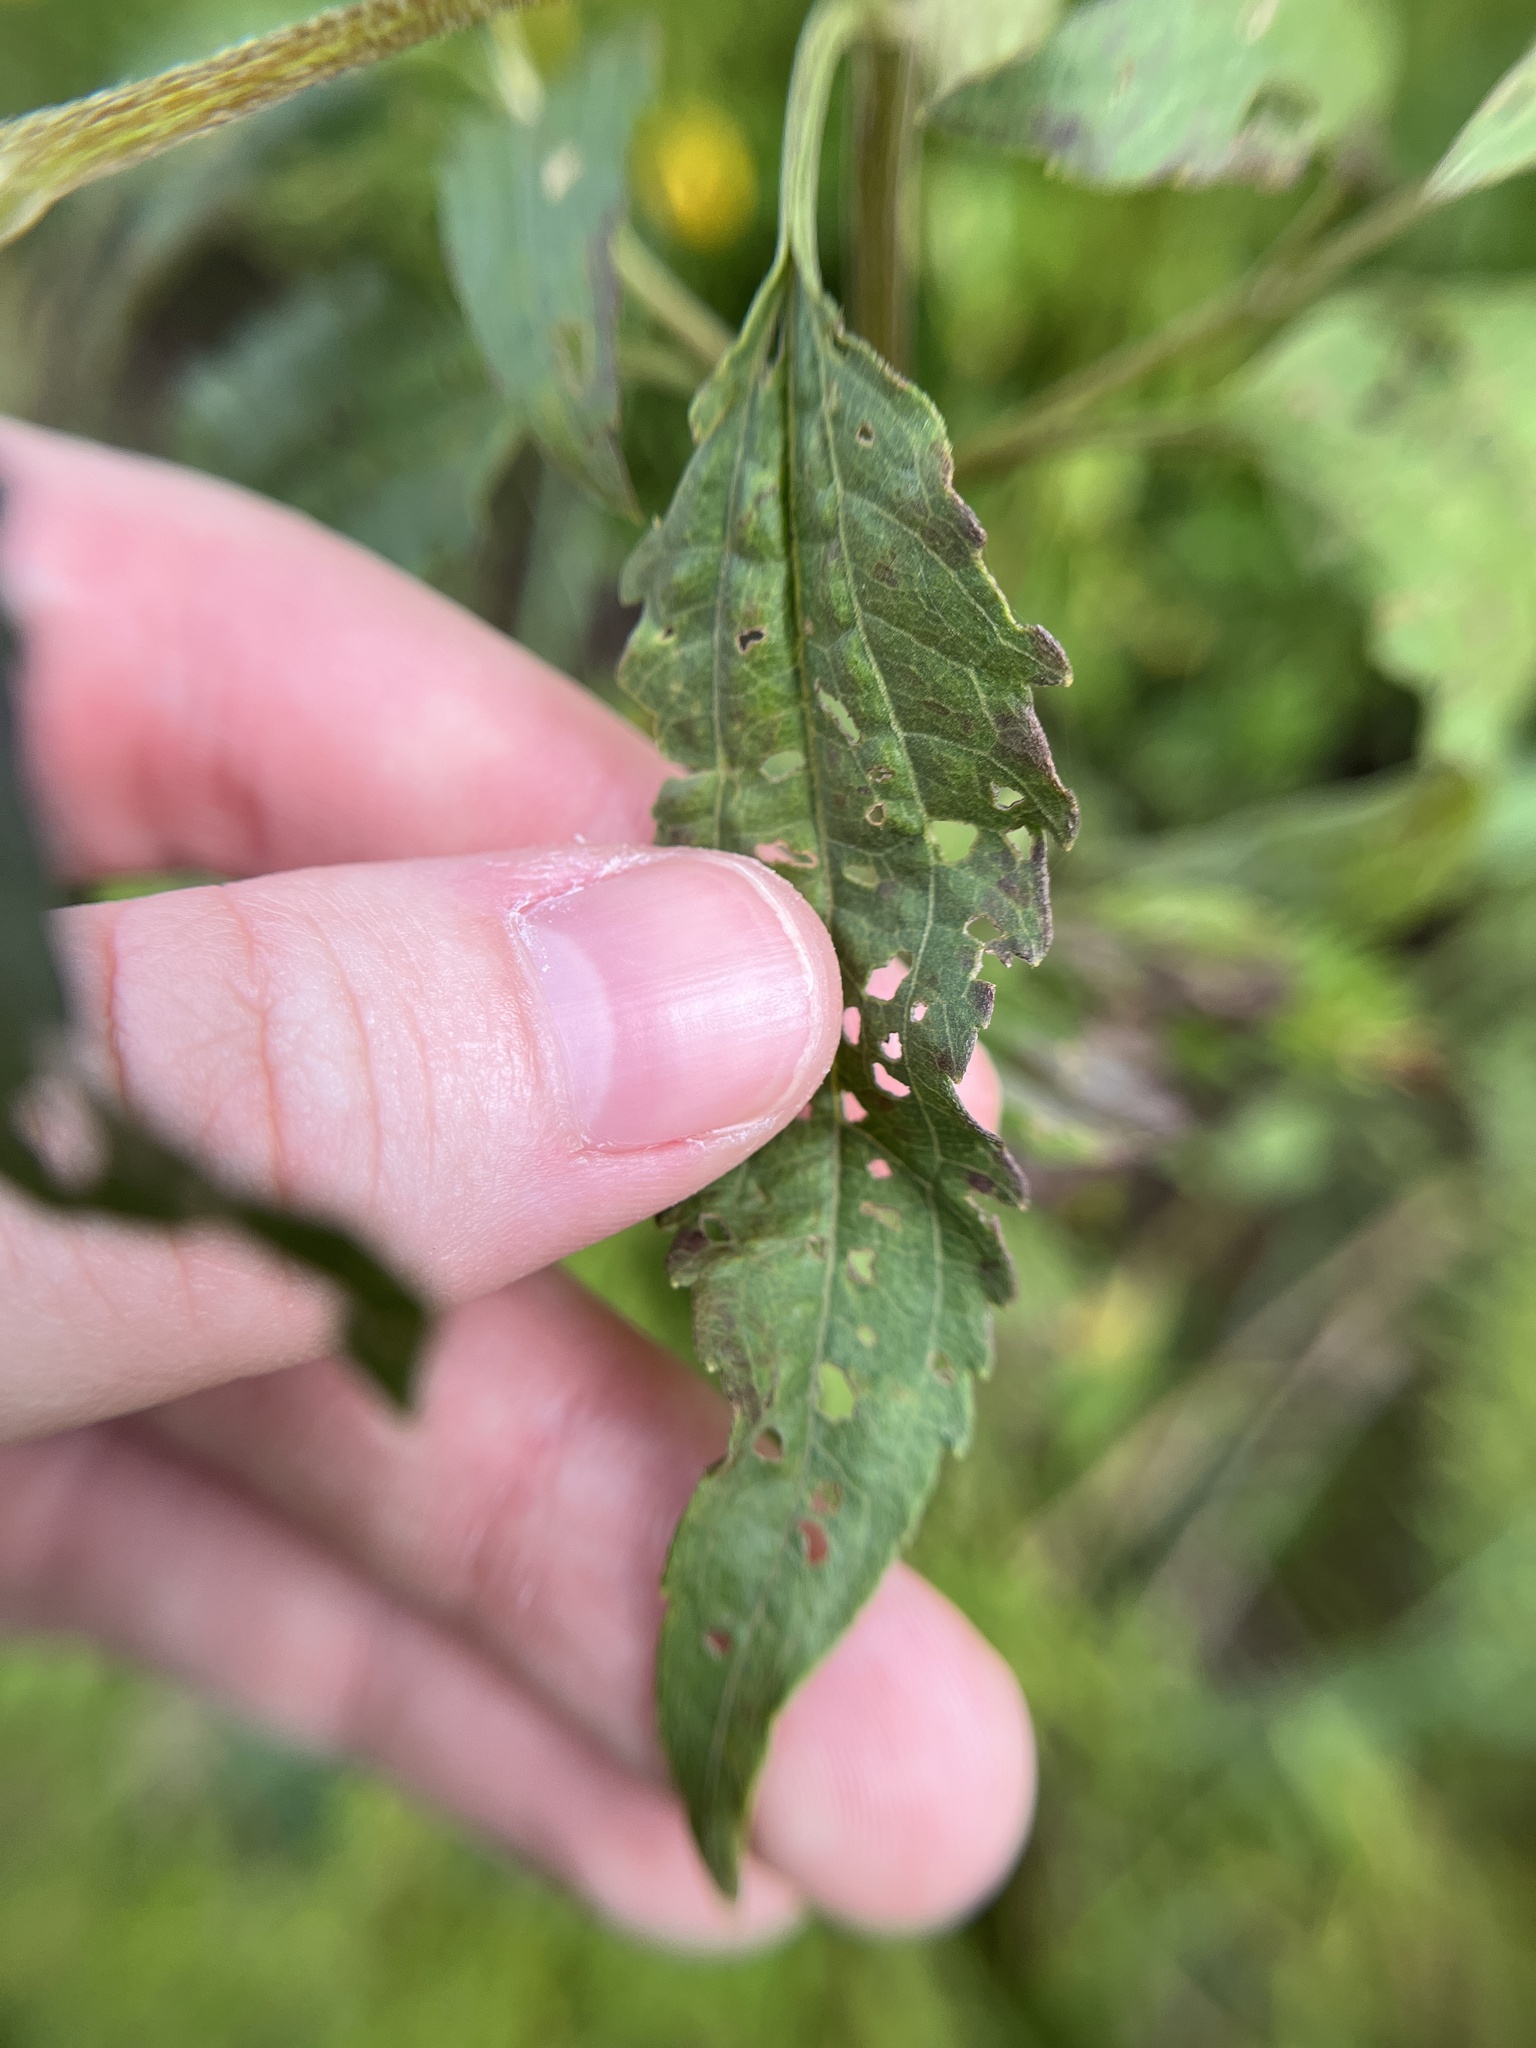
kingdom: Plantae
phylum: Tracheophyta
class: Magnoliopsida
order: Asterales
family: Asteraceae
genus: Eupatorium
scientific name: Eupatorium serotinum
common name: Late boneset
